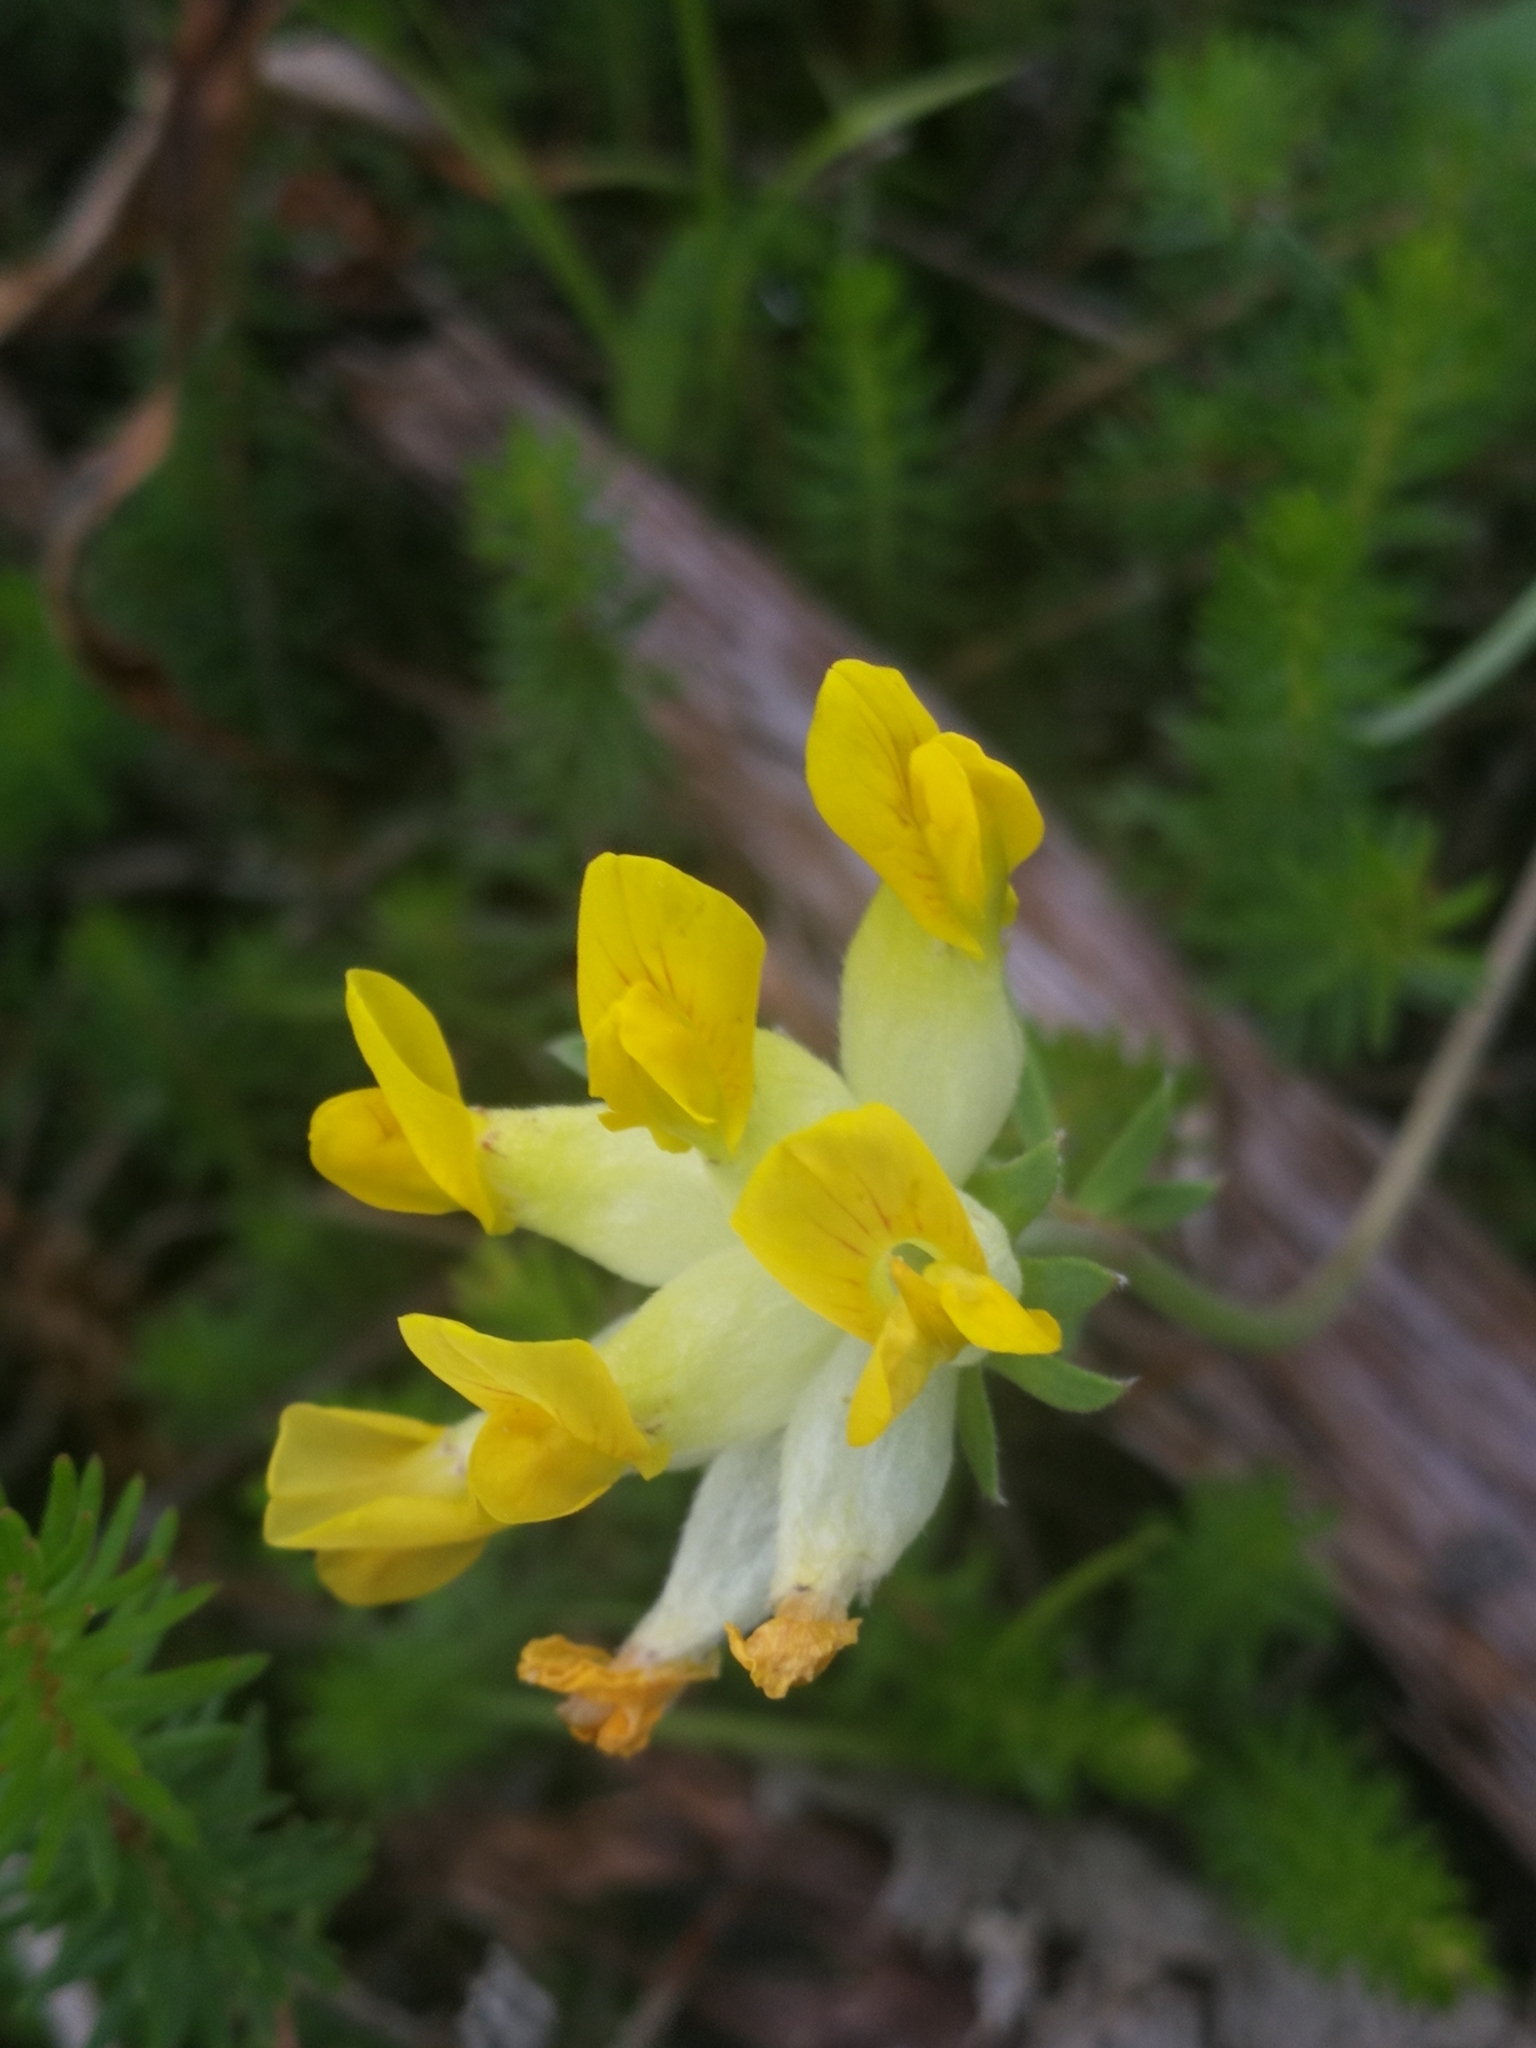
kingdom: Plantae
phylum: Tracheophyta
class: Magnoliopsida
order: Fabales
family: Fabaceae
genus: Anthyllis
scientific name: Anthyllis vulneraria
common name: Kidney vetch
